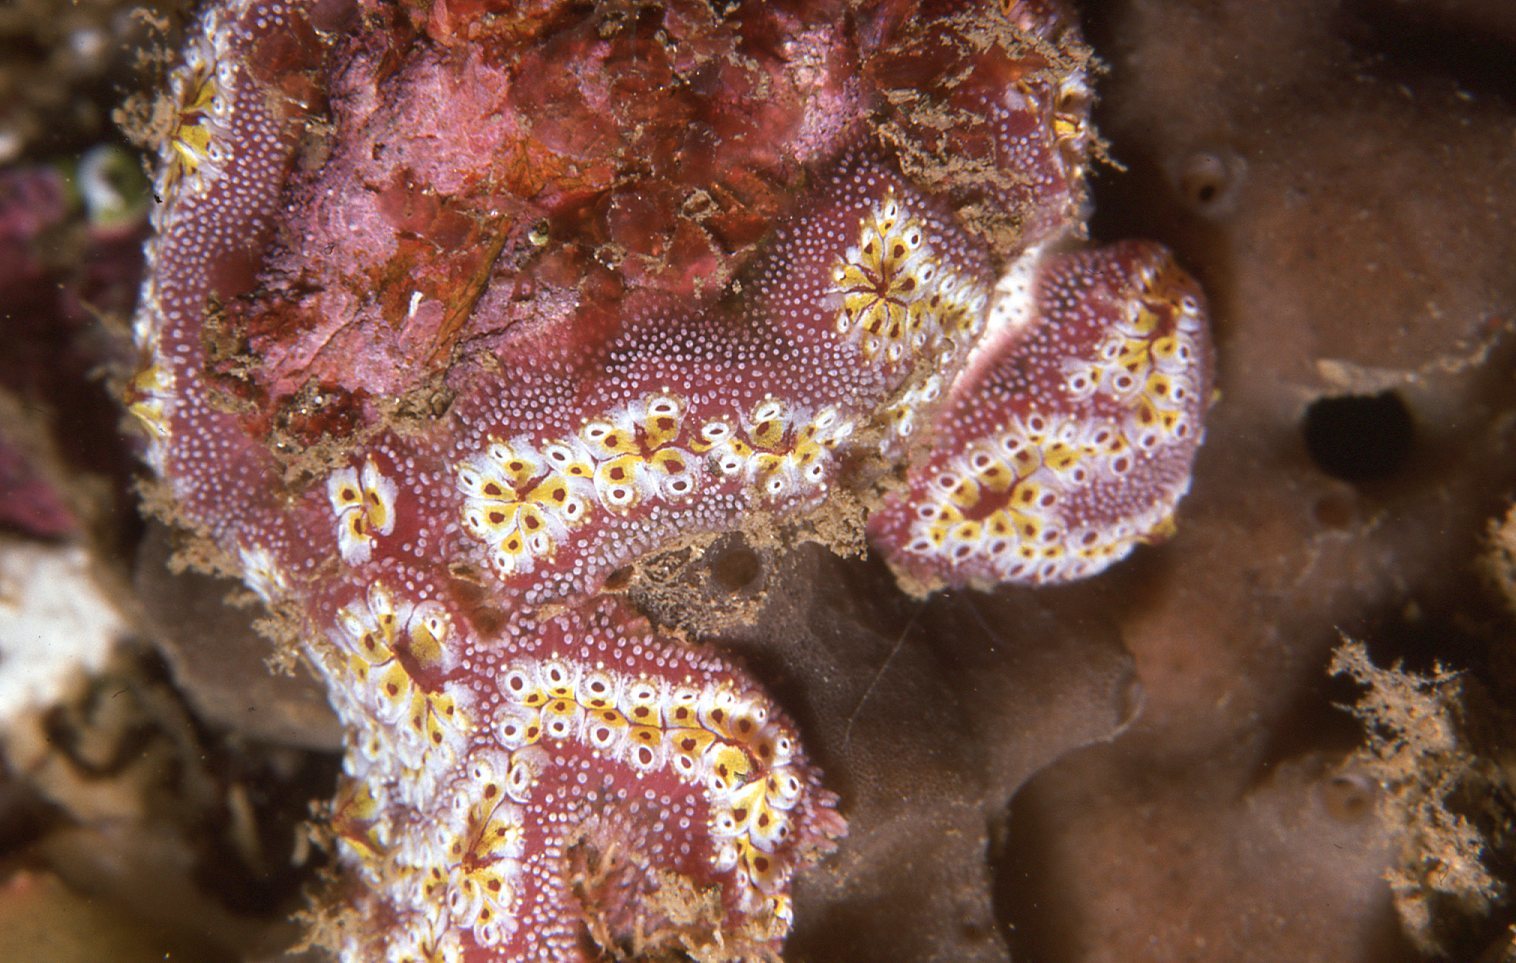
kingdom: Animalia
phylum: Chordata
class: Ascidiacea
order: Stolidobranchia
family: Styelidae
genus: Botrylloides
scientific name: Botrylloides leachii
